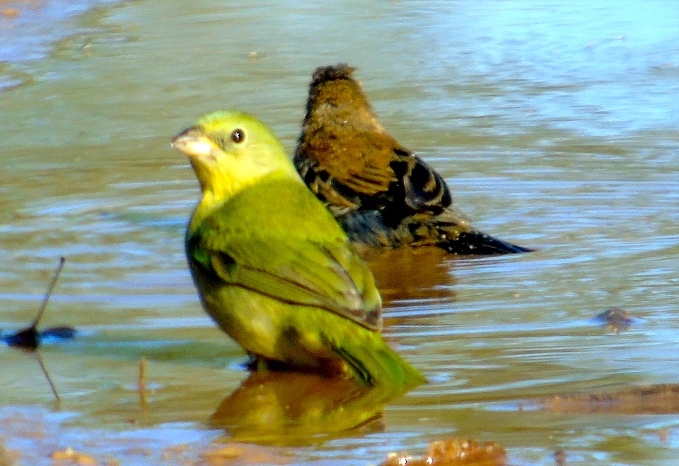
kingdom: Animalia
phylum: Chordata
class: Aves
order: Passeriformes
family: Cardinalidae
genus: Passerina
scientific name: Passerina ciris
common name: Painted bunting
